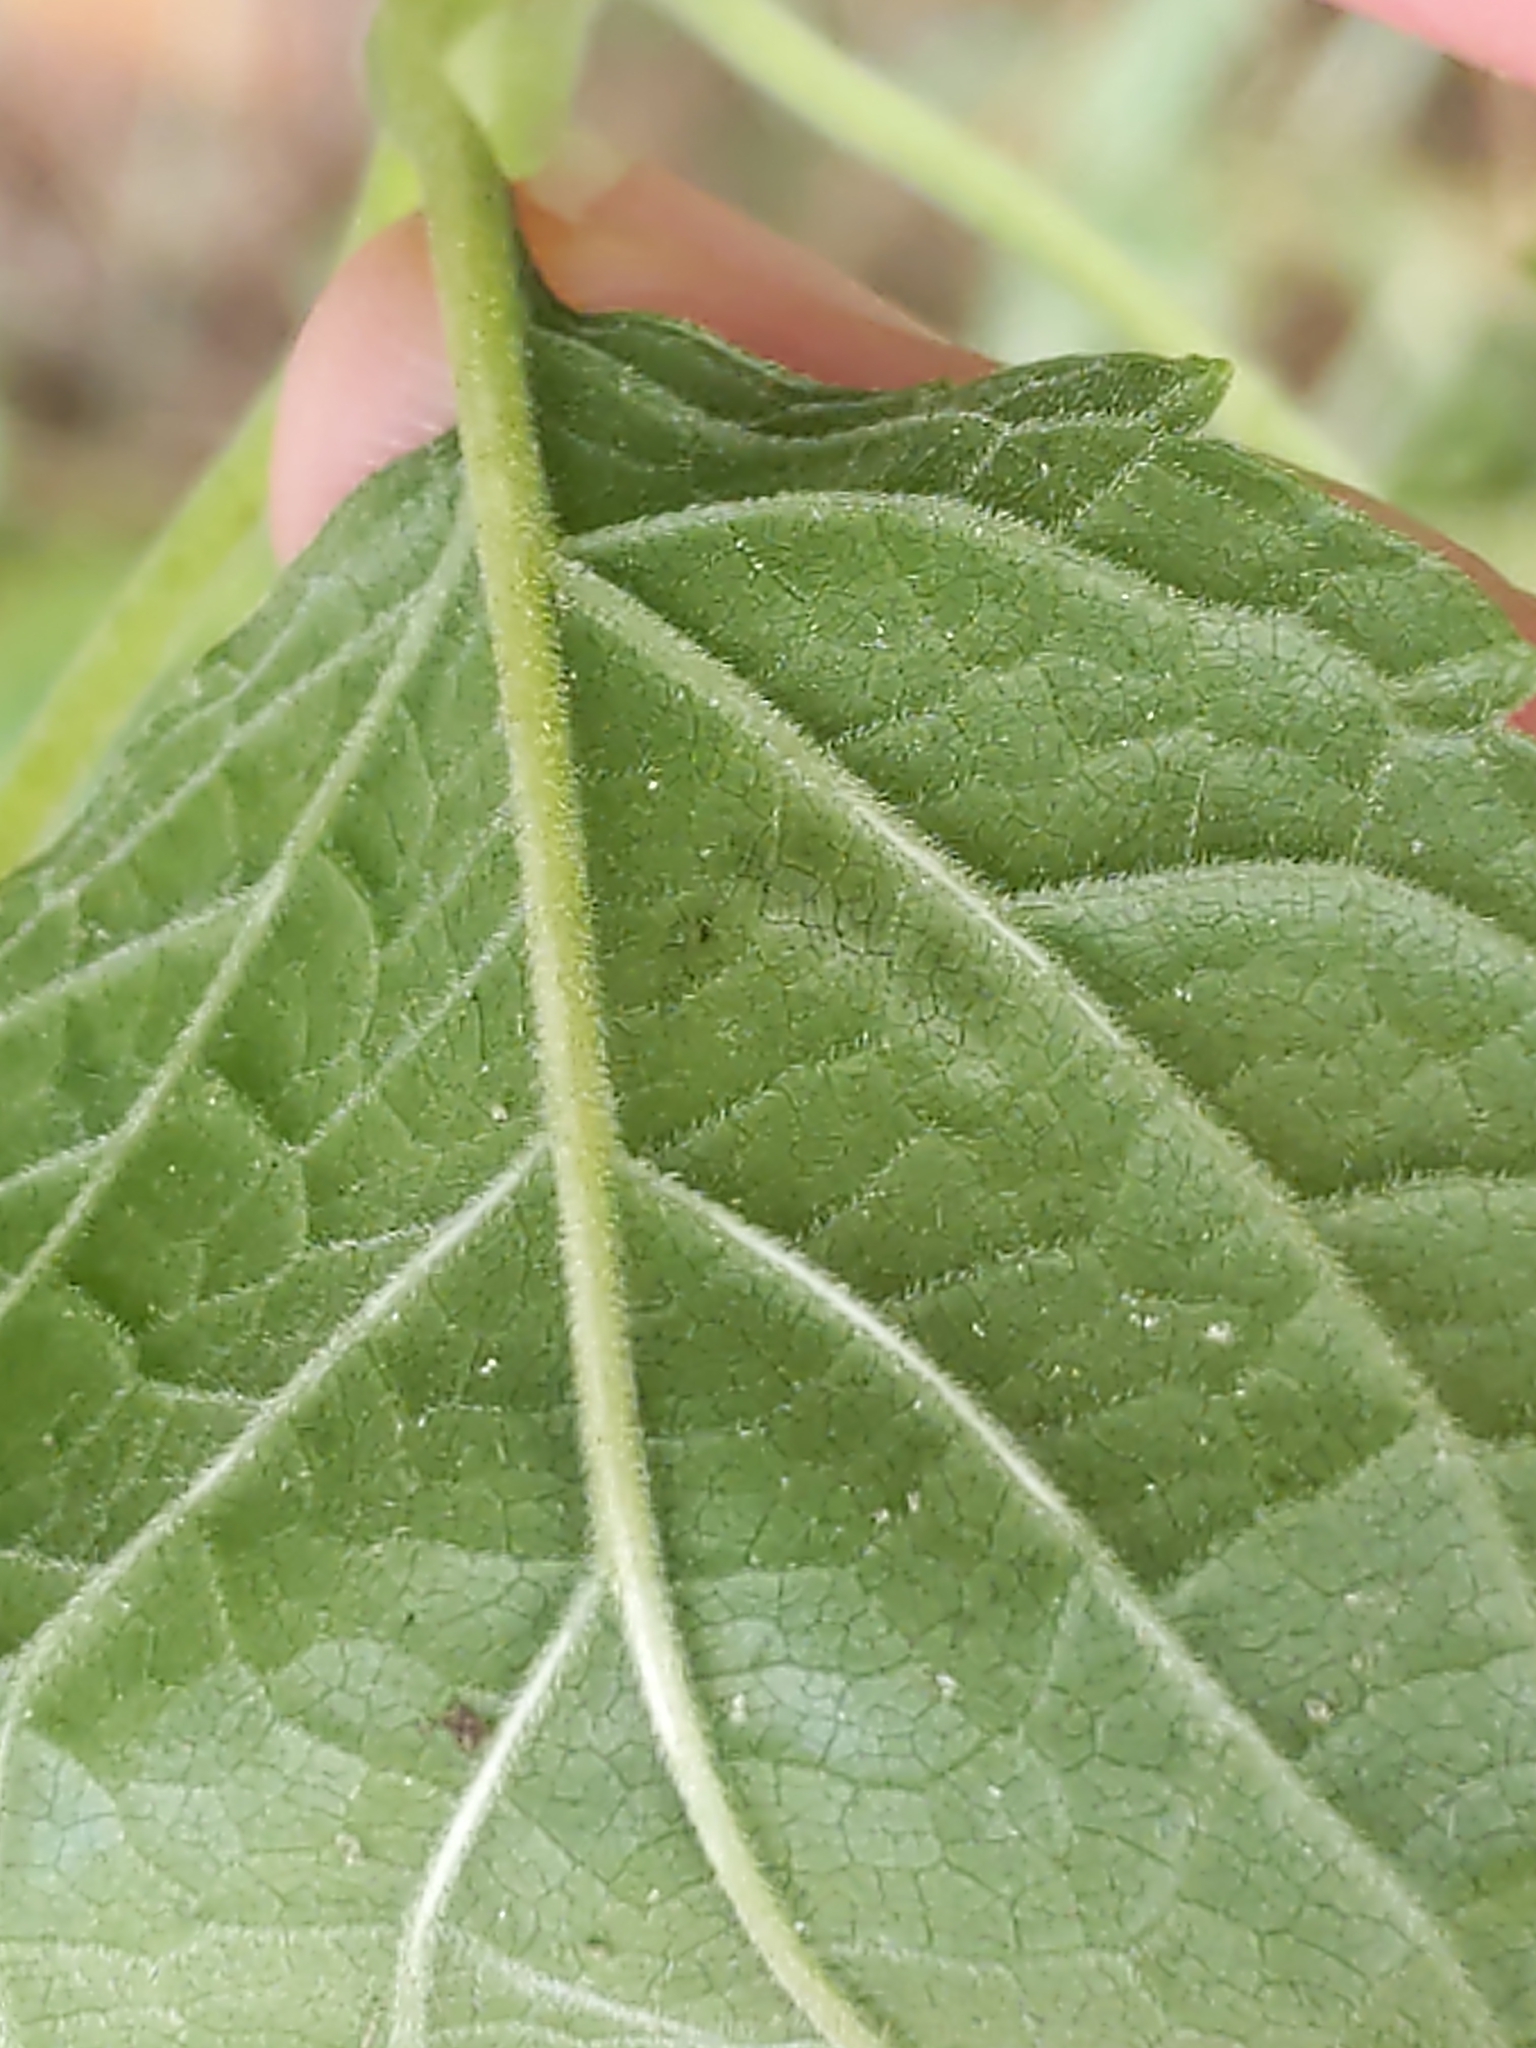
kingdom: Animalia
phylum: Arthropoda
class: Insecta
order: Diptera
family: Agromyzidae
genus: Calycomyza
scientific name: Calycomyza eupatoriphaga
